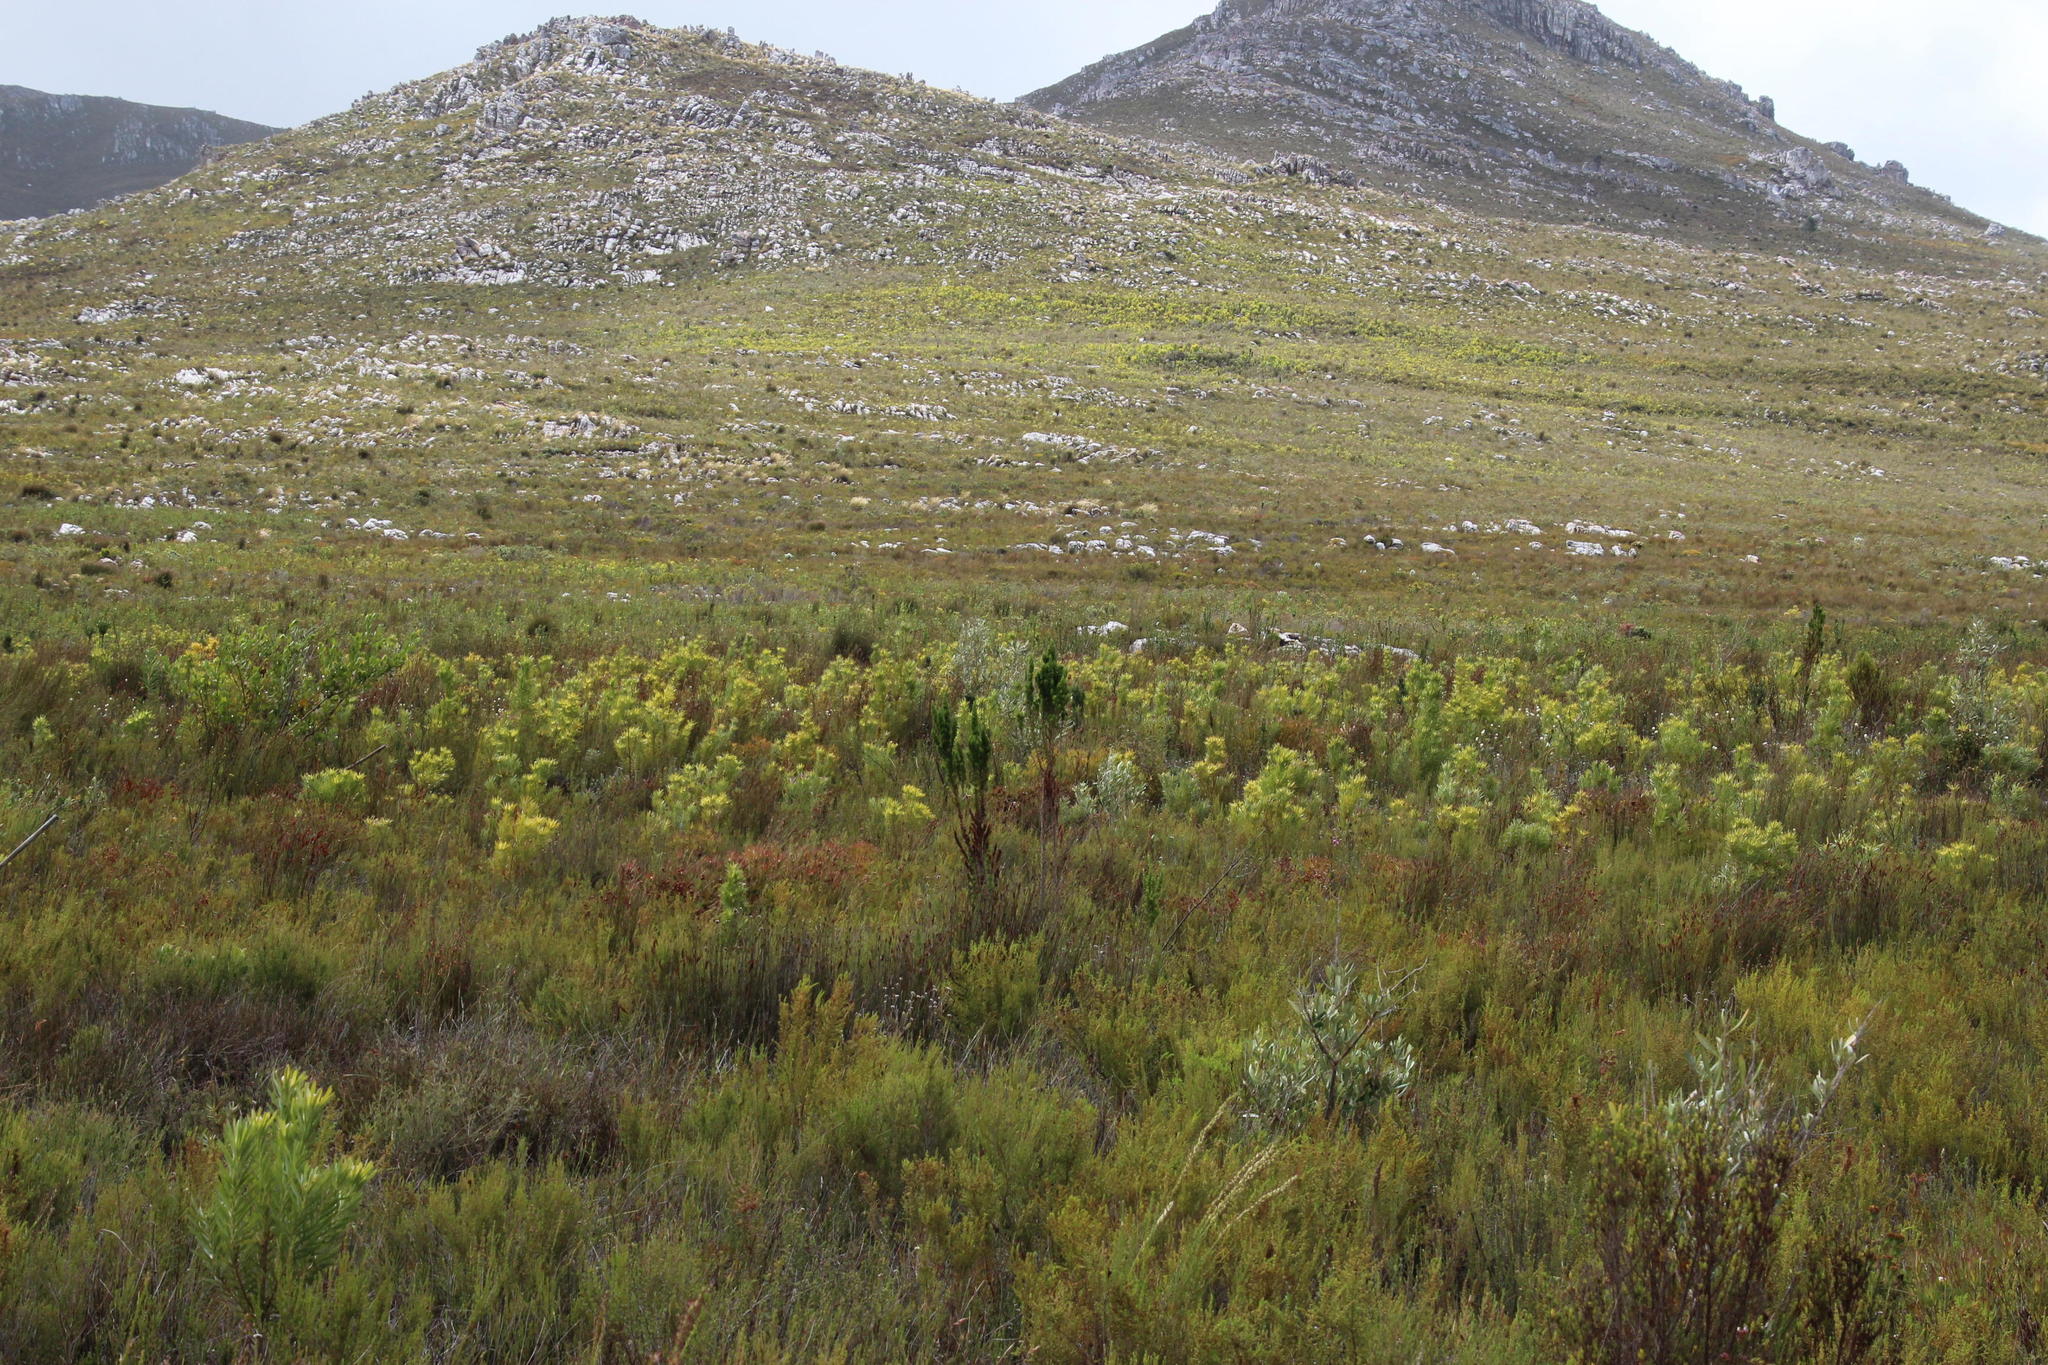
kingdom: Plantae
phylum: Tracheophyta
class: Magnoliopsida
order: Gentianales
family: Rubiaceae
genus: Anthospermum
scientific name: Anthospermum spathulatum
